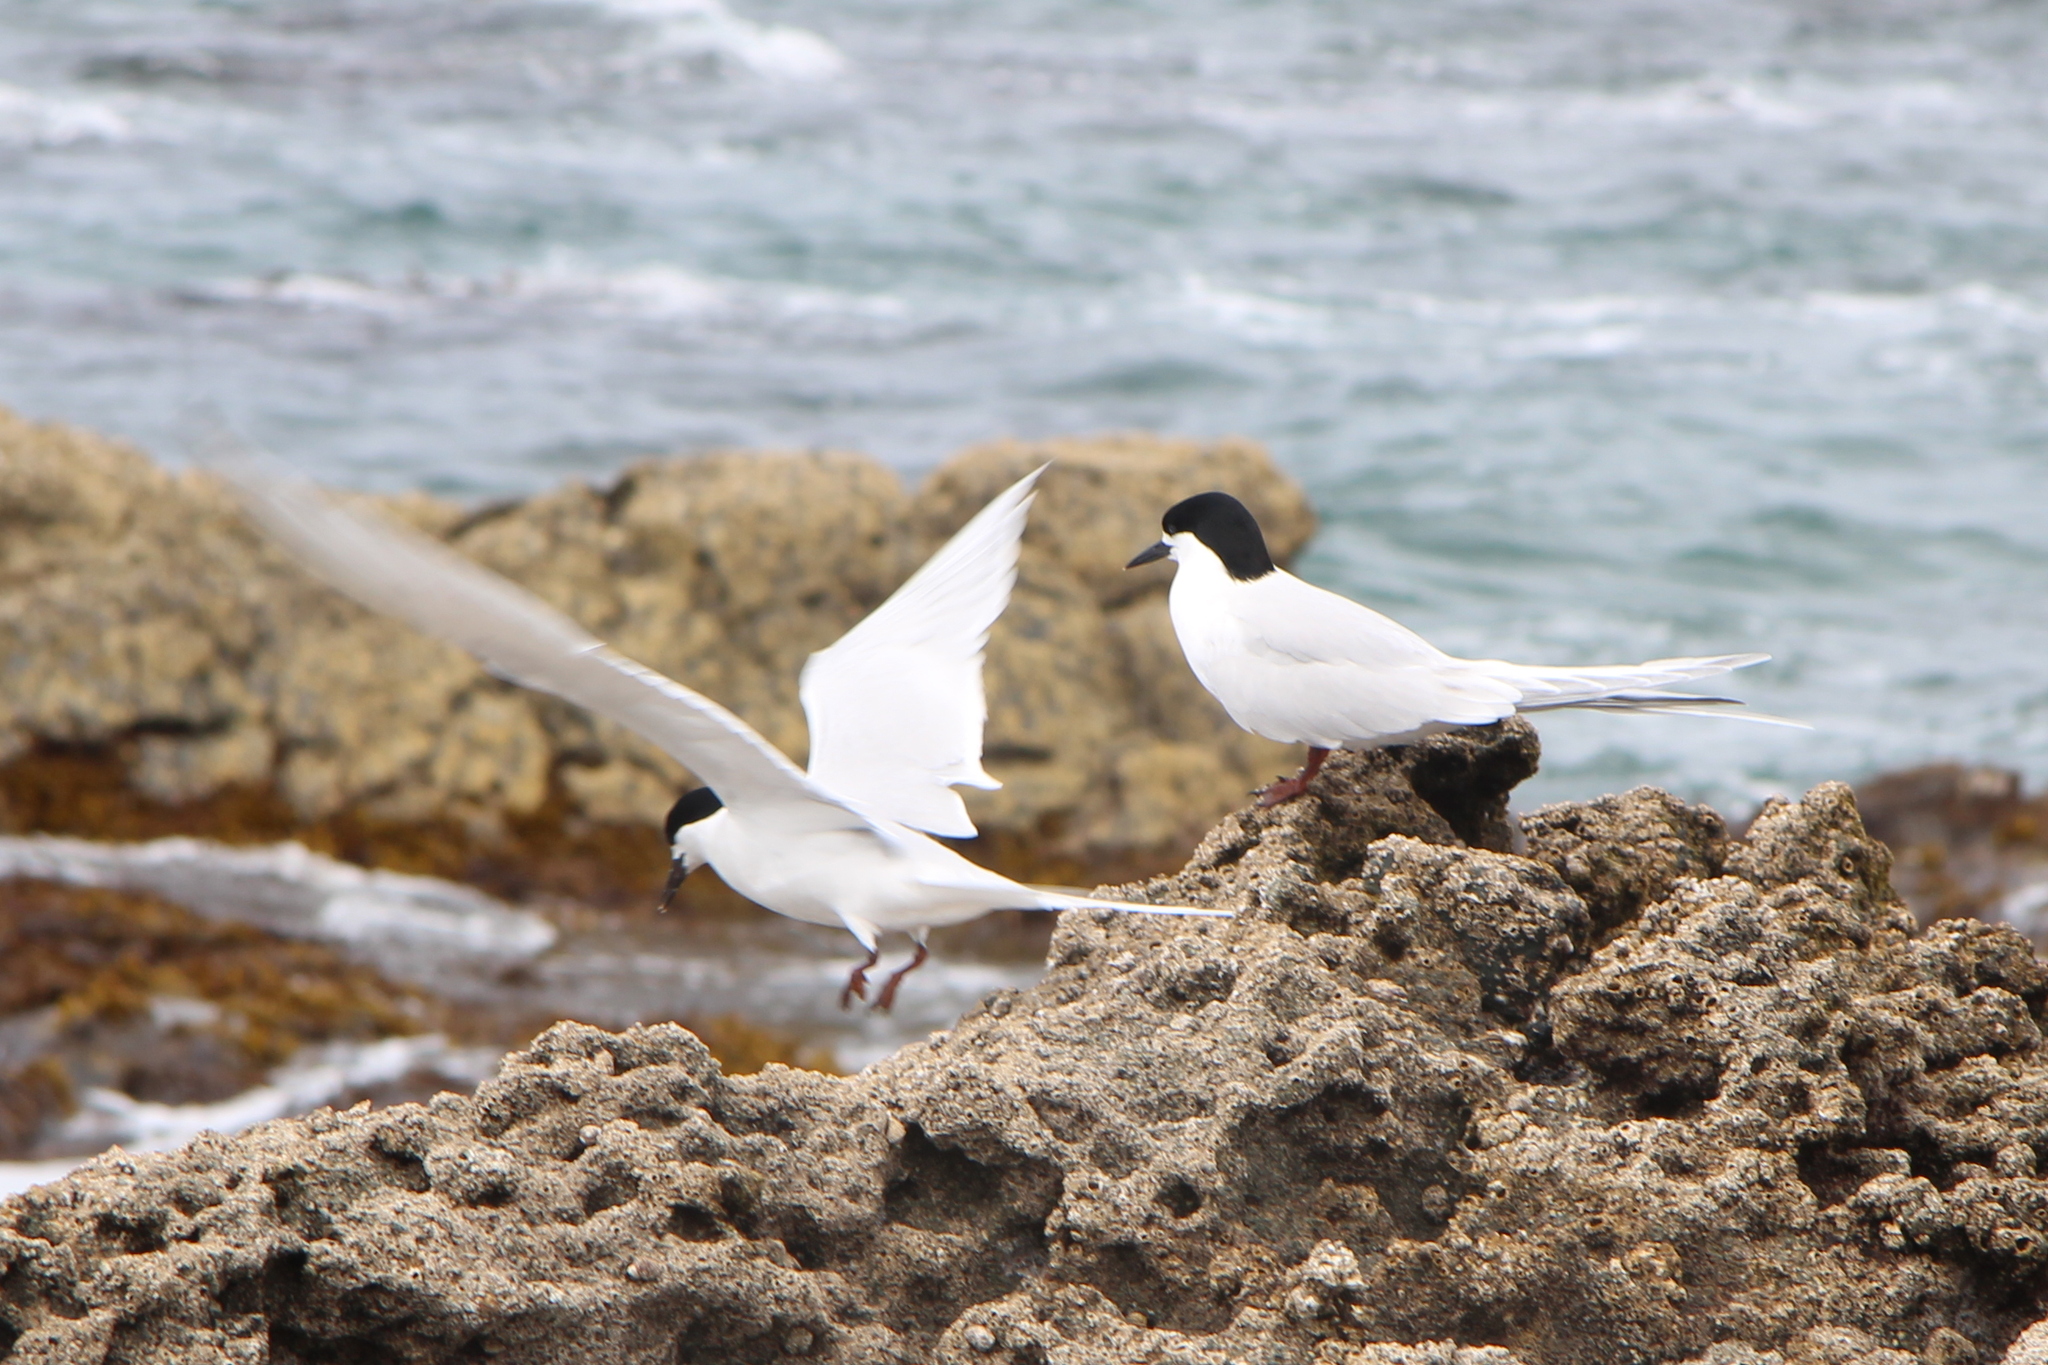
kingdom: Animalia
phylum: Chordata
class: Aves
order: Charadriiformes
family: Laridae
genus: Sterna
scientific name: Sterna striata
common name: White-fronted tern
